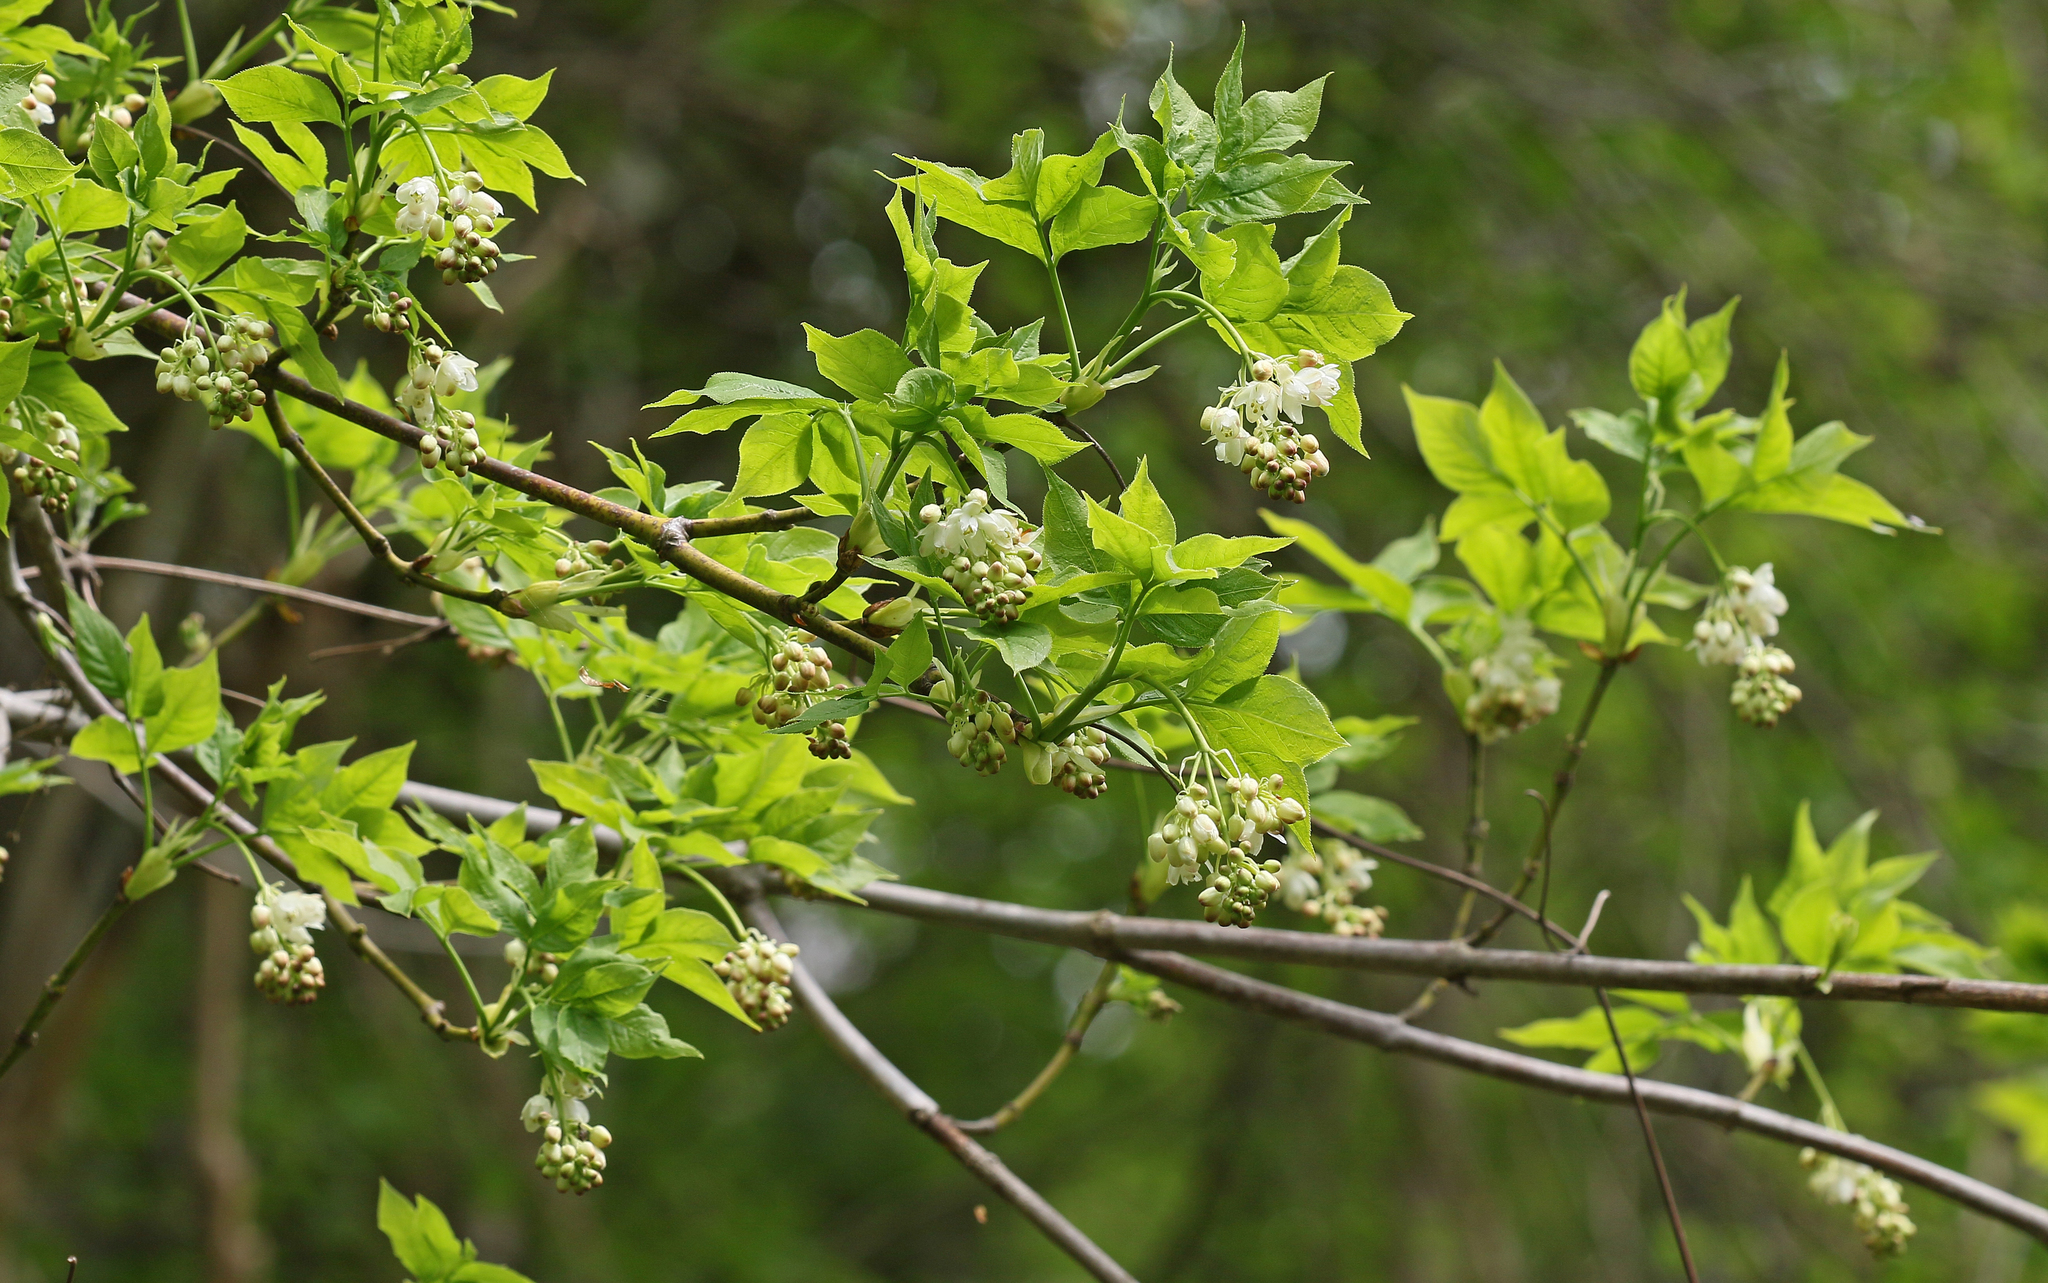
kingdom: Plantae
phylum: Tracheophyta
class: Magnoliopsida
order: Crossosomatales
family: Staphyleaceae
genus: Staphylea
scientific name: Staphylea pinnata
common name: Bladdernut
